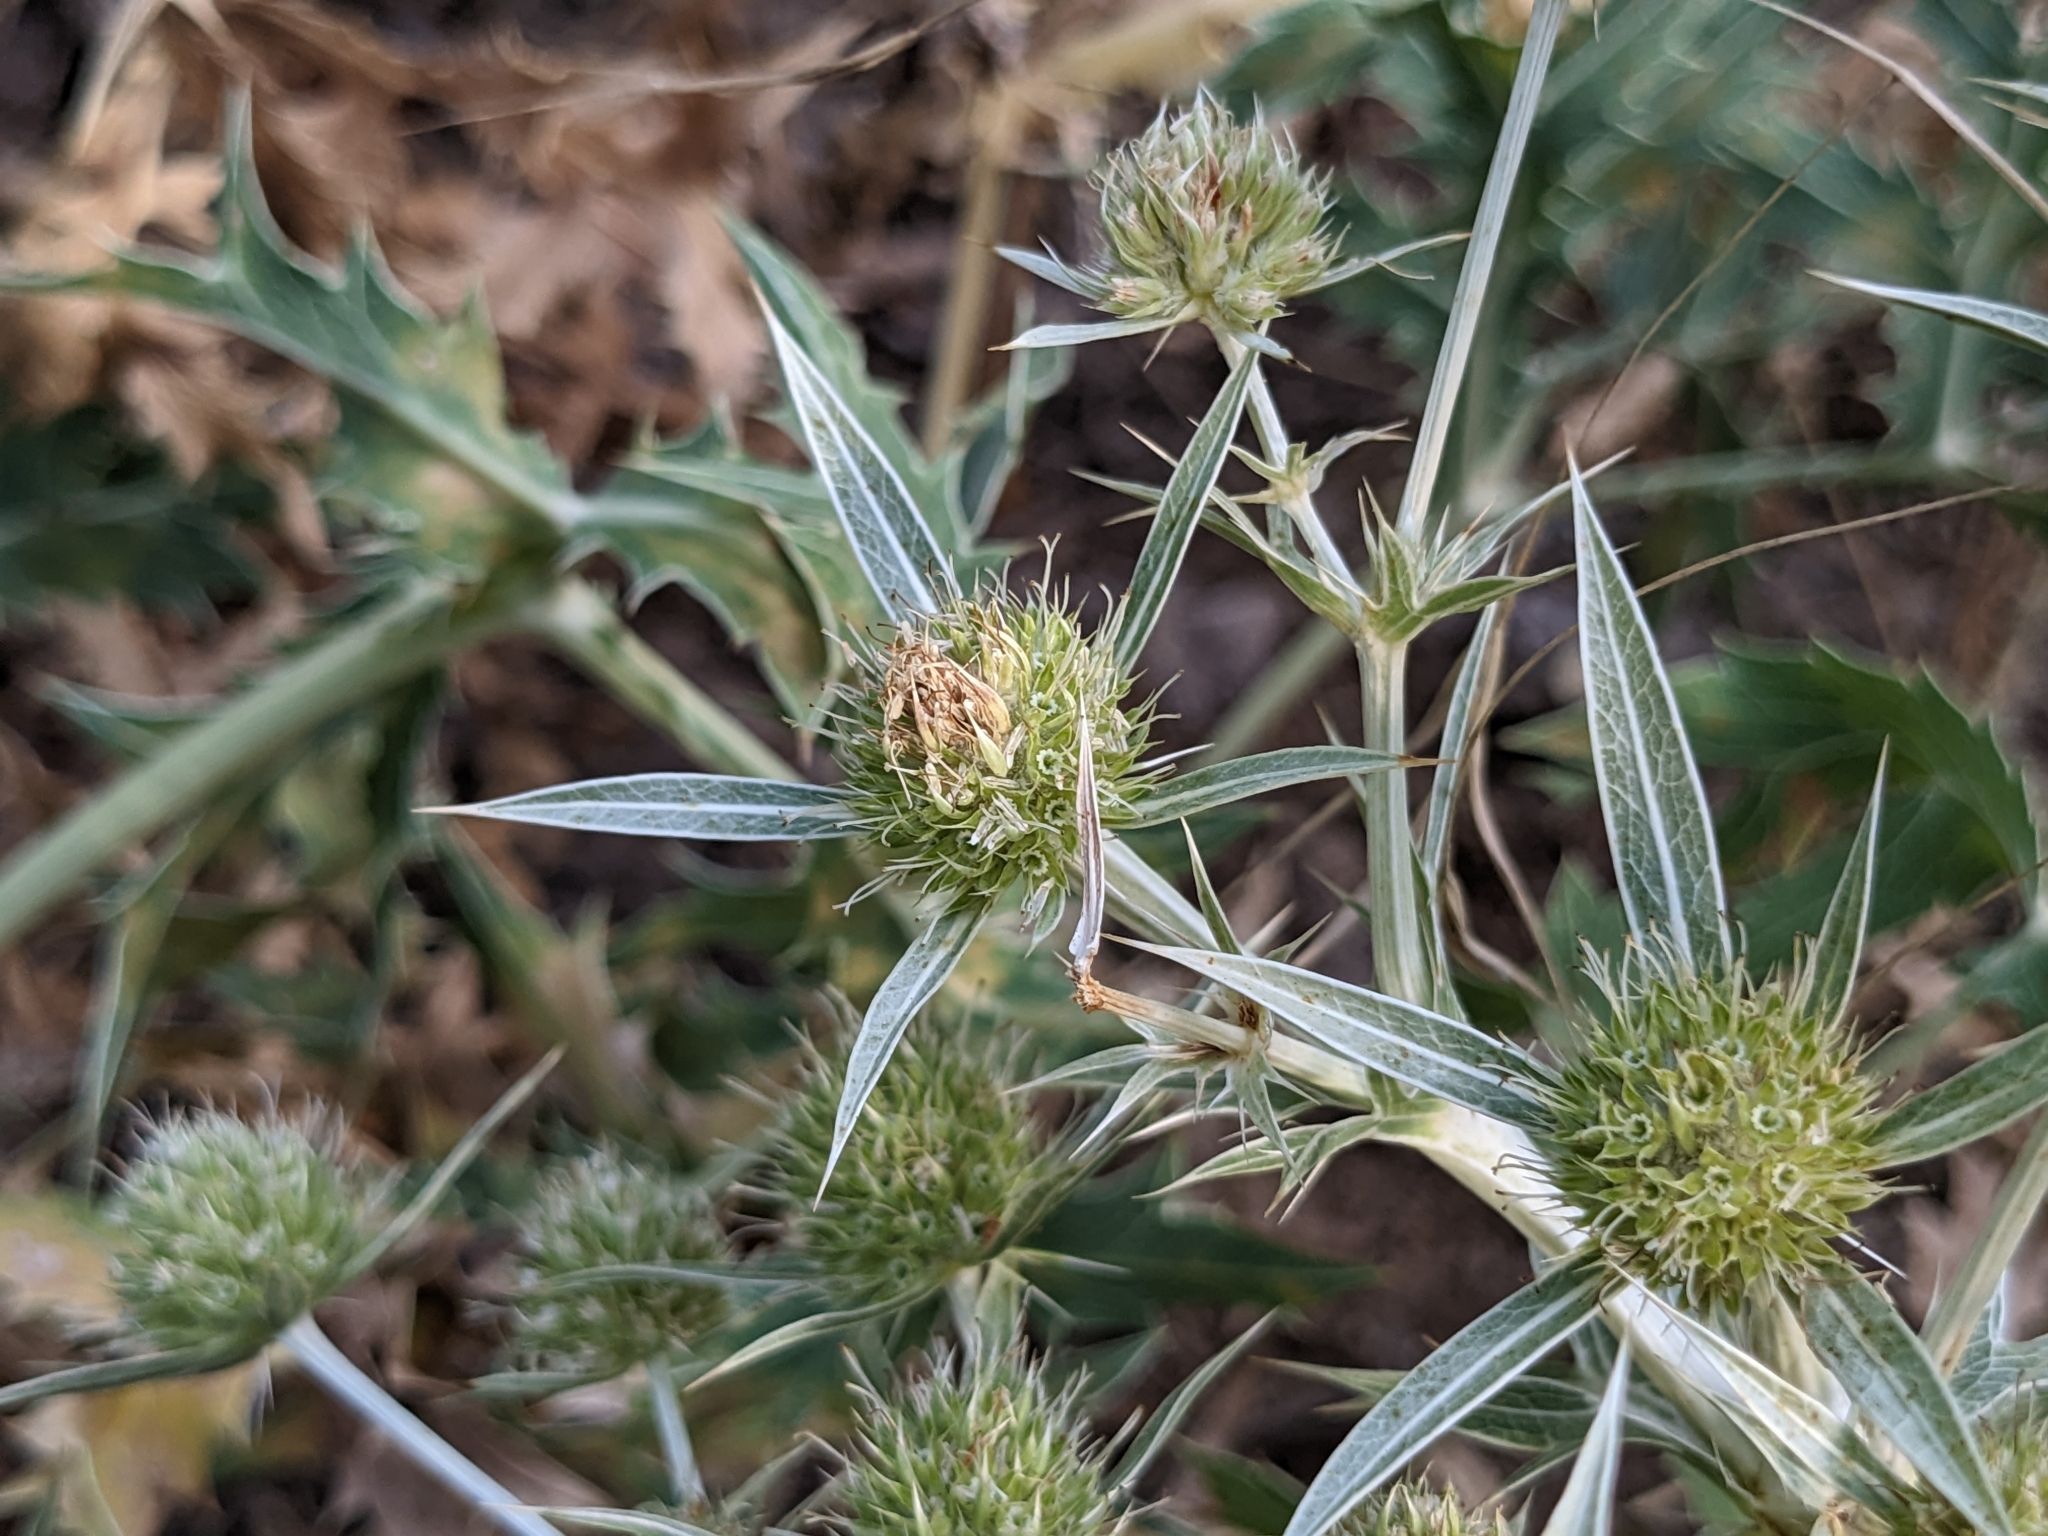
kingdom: Plantae
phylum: Tracheophyta
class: Magnoliopsida
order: Apiales
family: Apiaceae
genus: Eryngium
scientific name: Eryngium campestre
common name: Field eryngo
